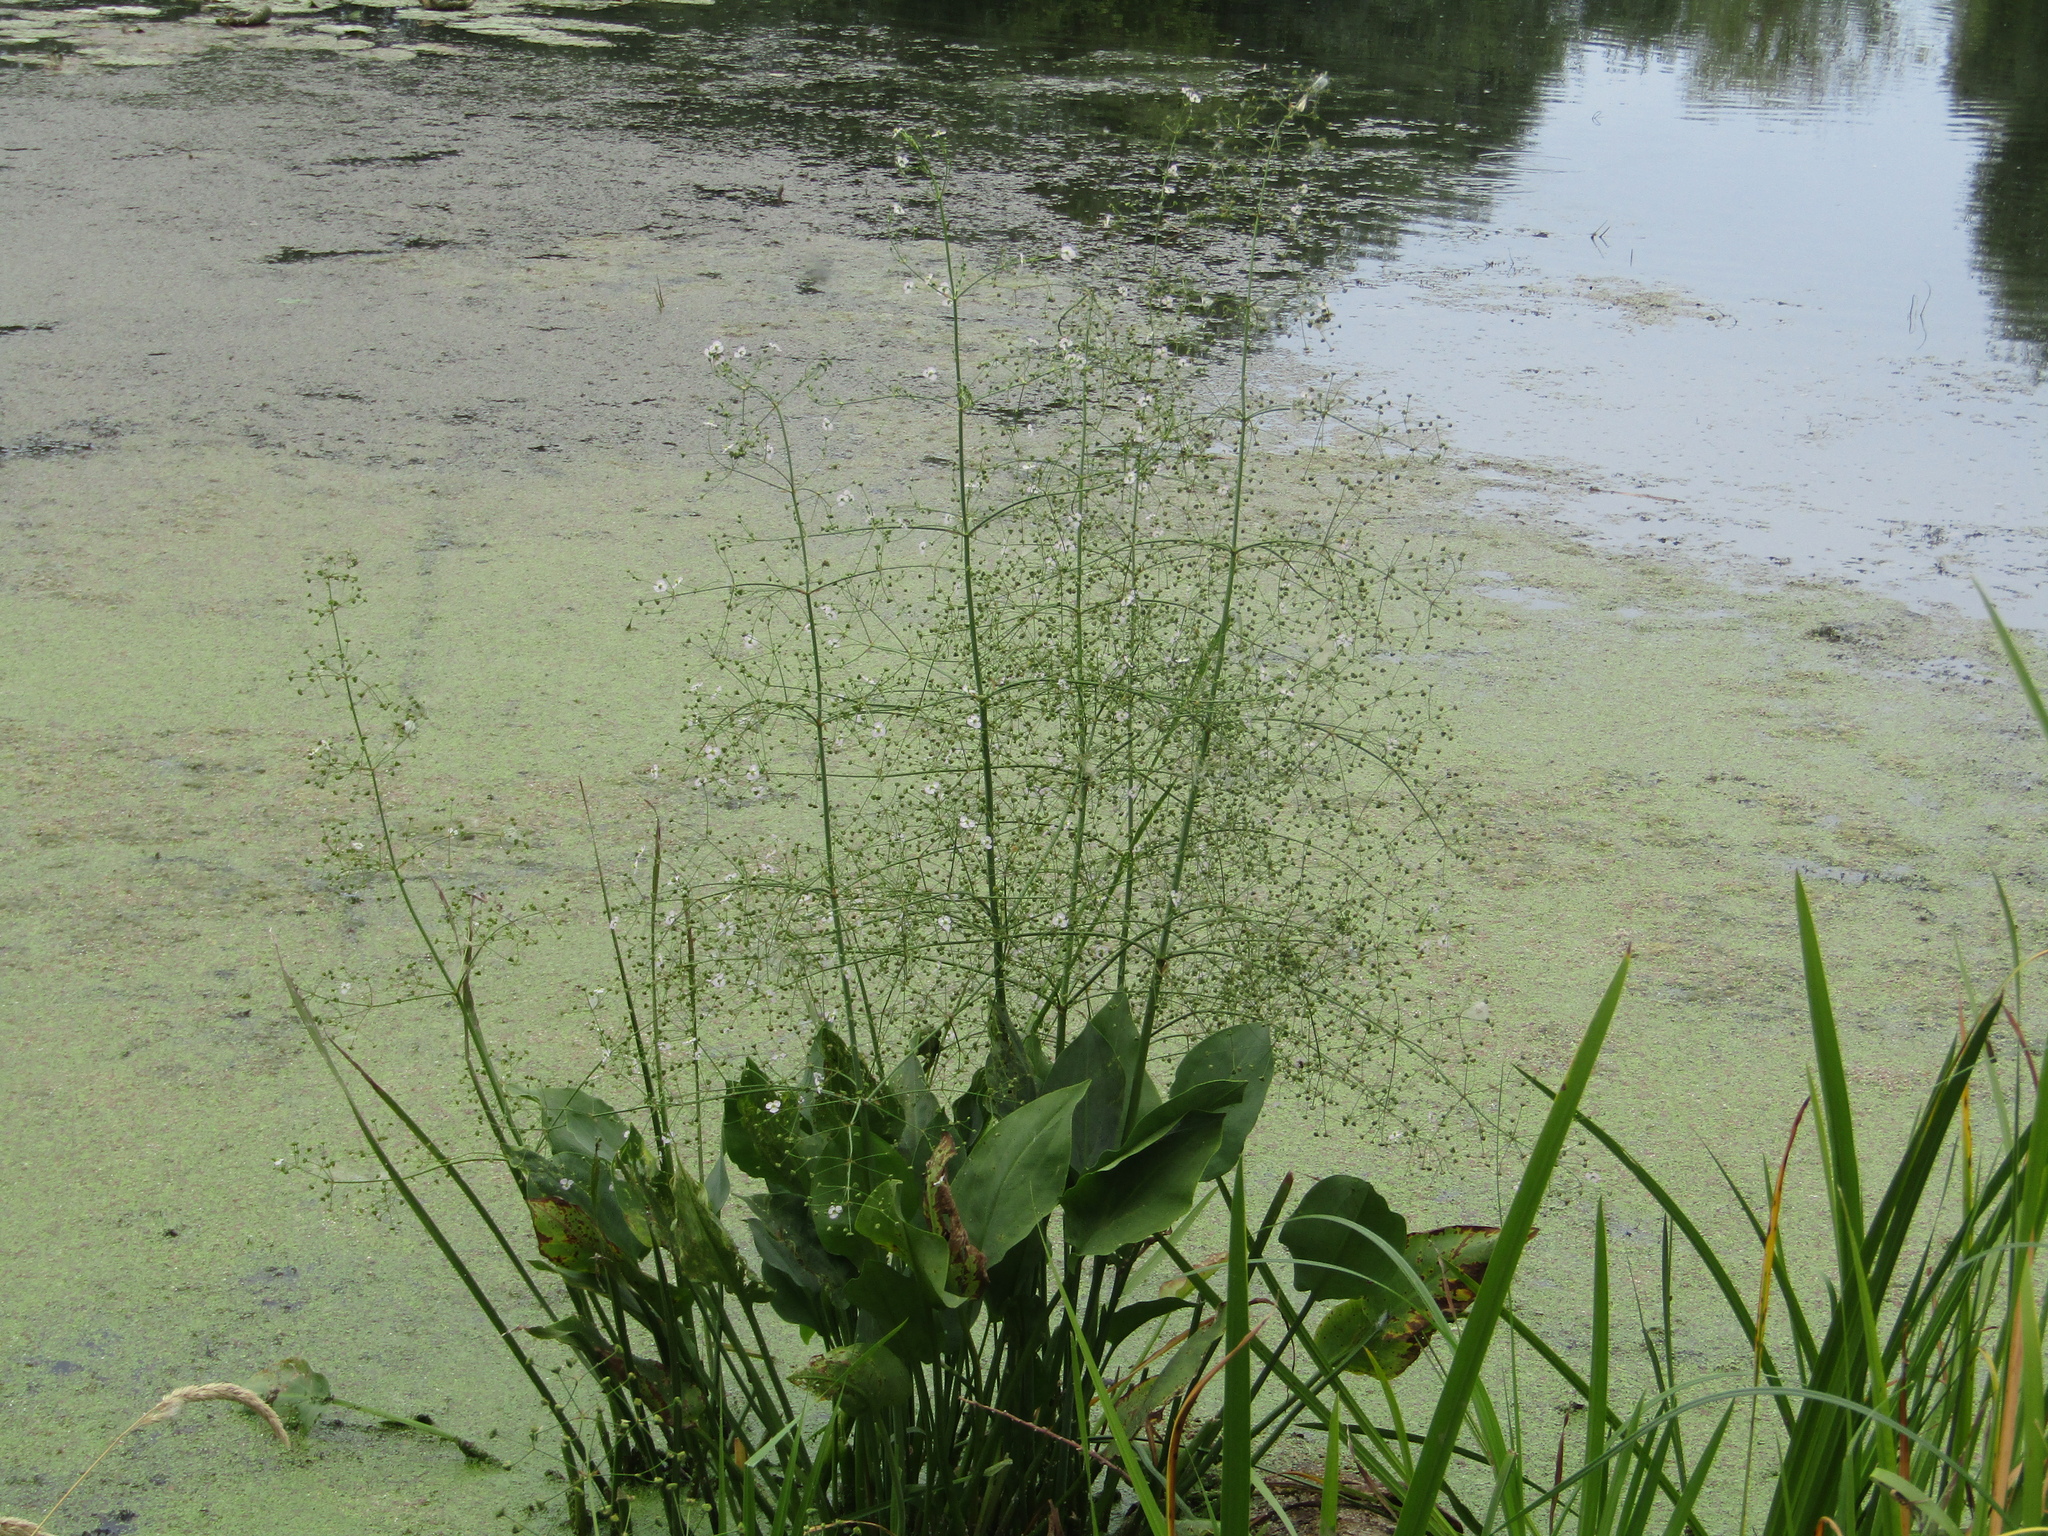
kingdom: Plantae
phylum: Tracheophyta
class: Liliopsida
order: Alismatales
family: Alismataceae
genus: Alisma
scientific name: Alisma plantago-aquatica
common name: Water-plantain
